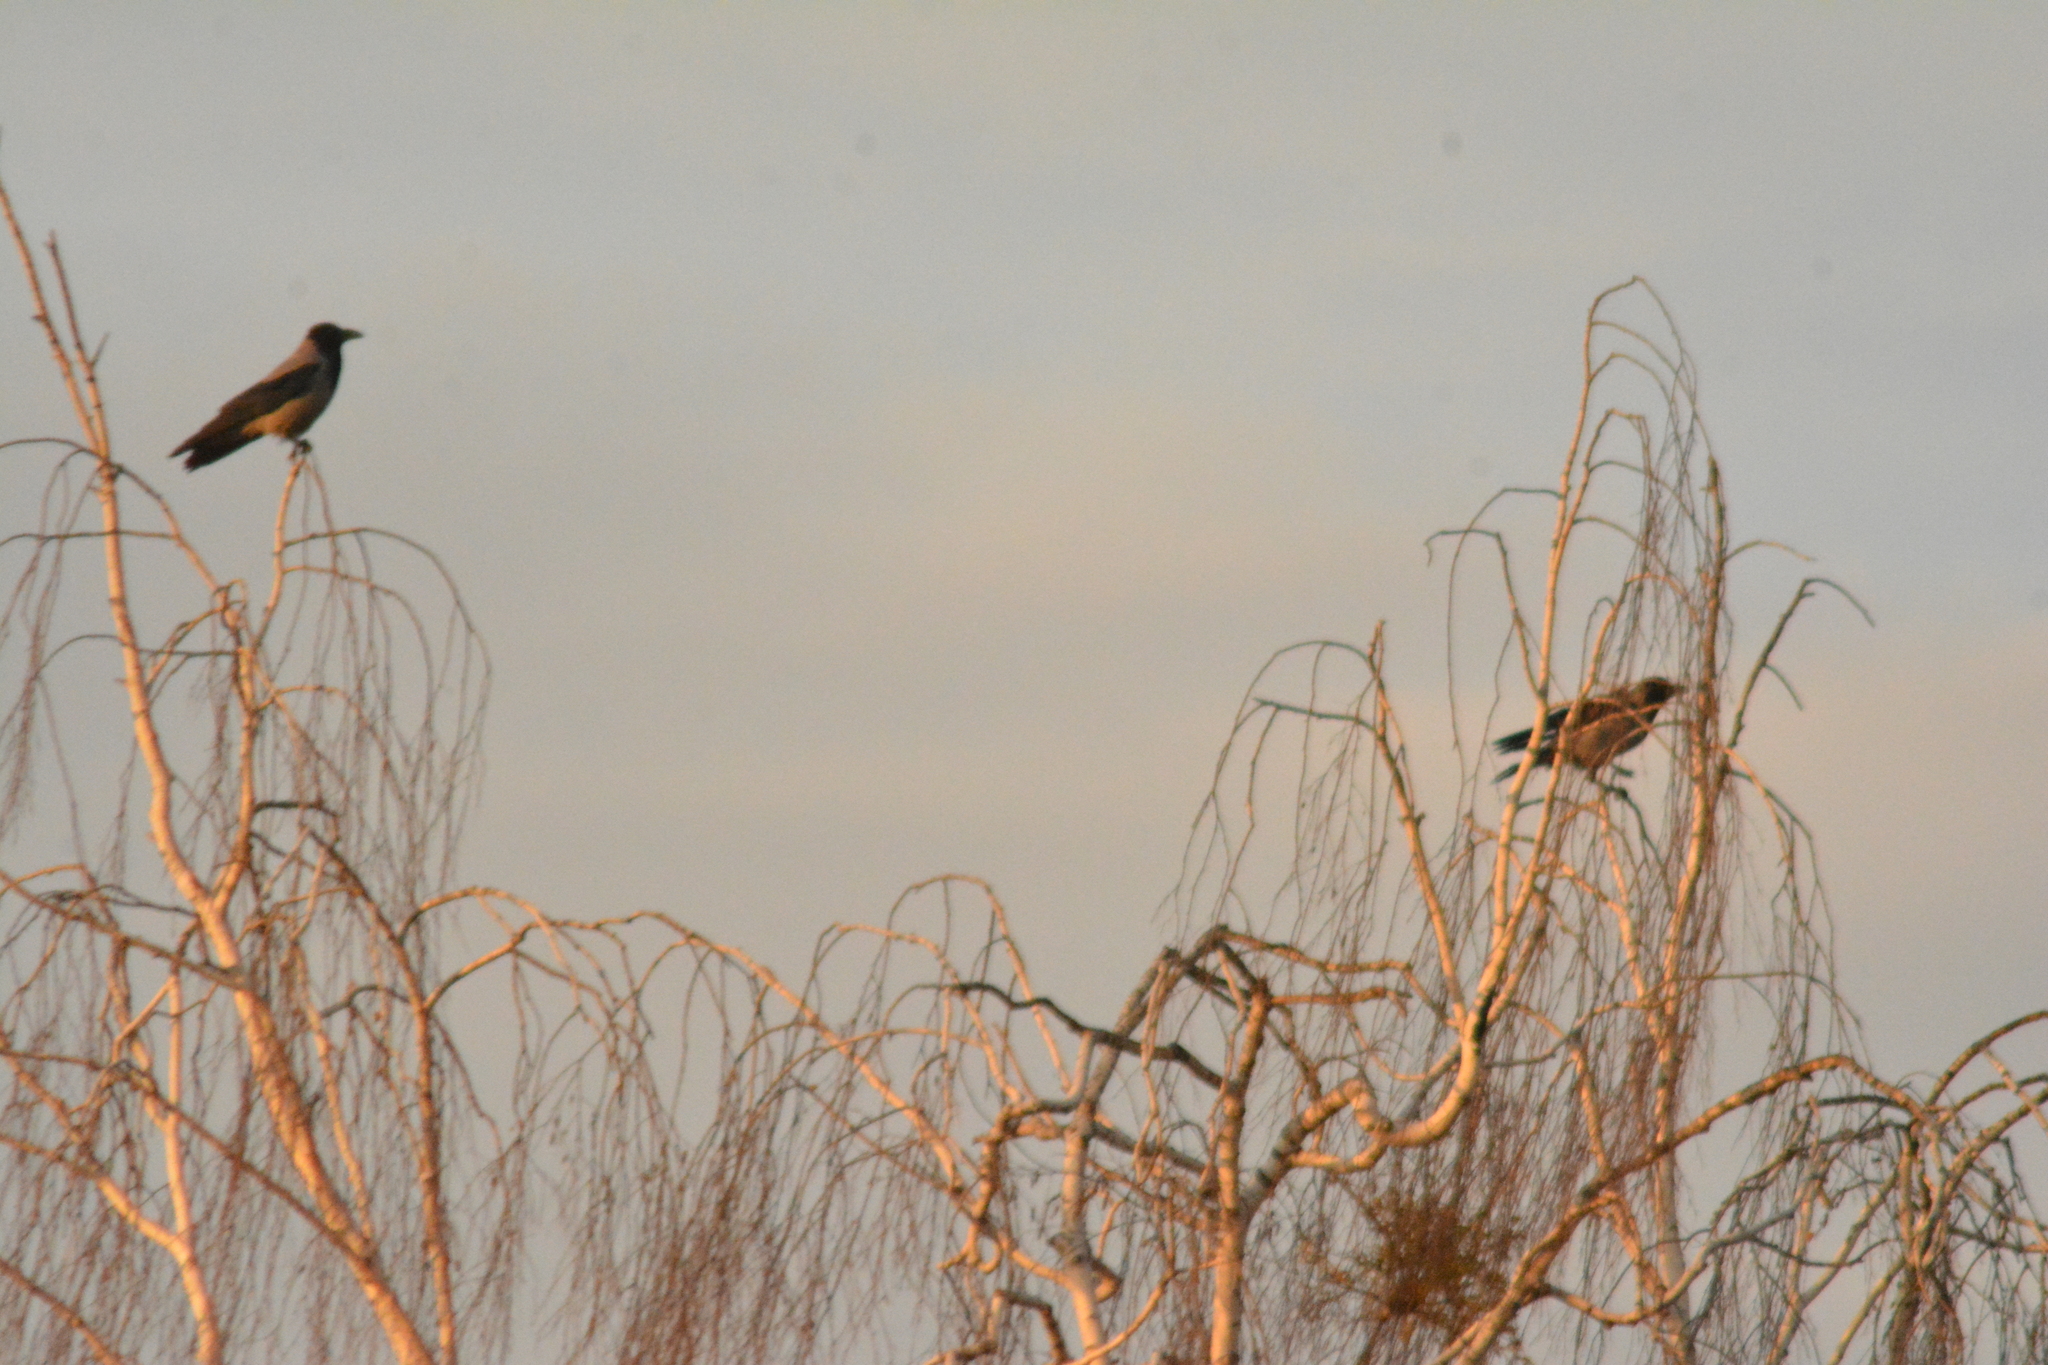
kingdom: Animalia
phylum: Chordata
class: Aves
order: Passeriformes
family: Corvidae
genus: Corvus
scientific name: Corvus cornix
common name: Hooded crow
